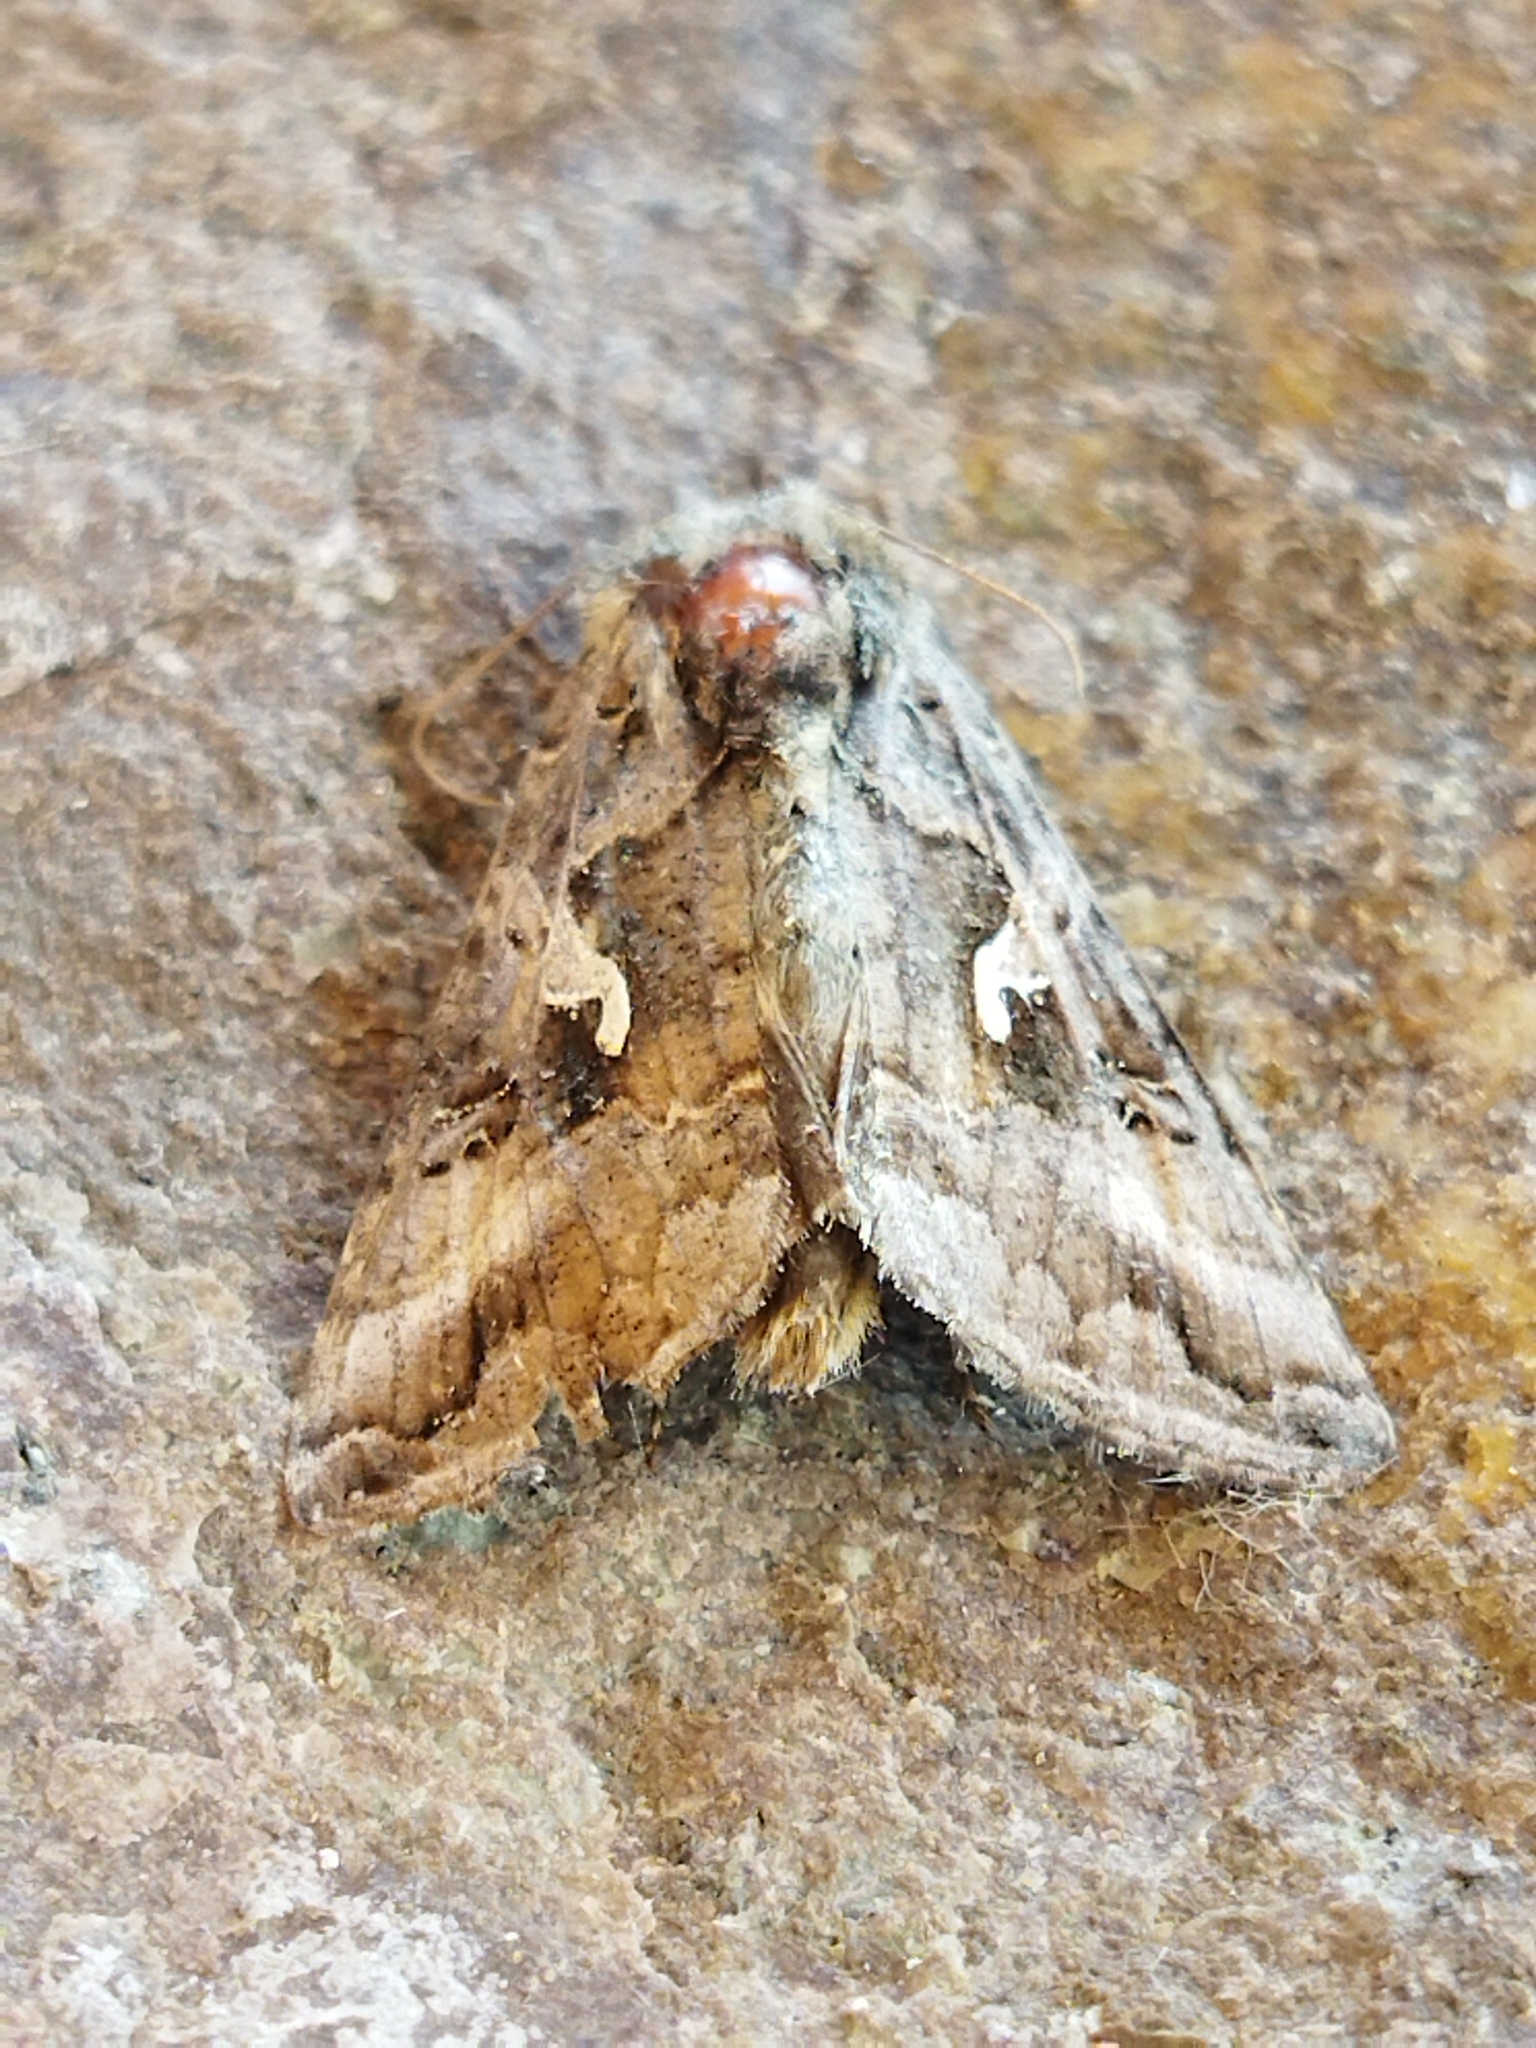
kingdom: Animalia
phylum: Arthropoda
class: Insecta
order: Lepidoptera
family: Noctuidae
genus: Autographa
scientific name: Autographa gamma
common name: Silver y
